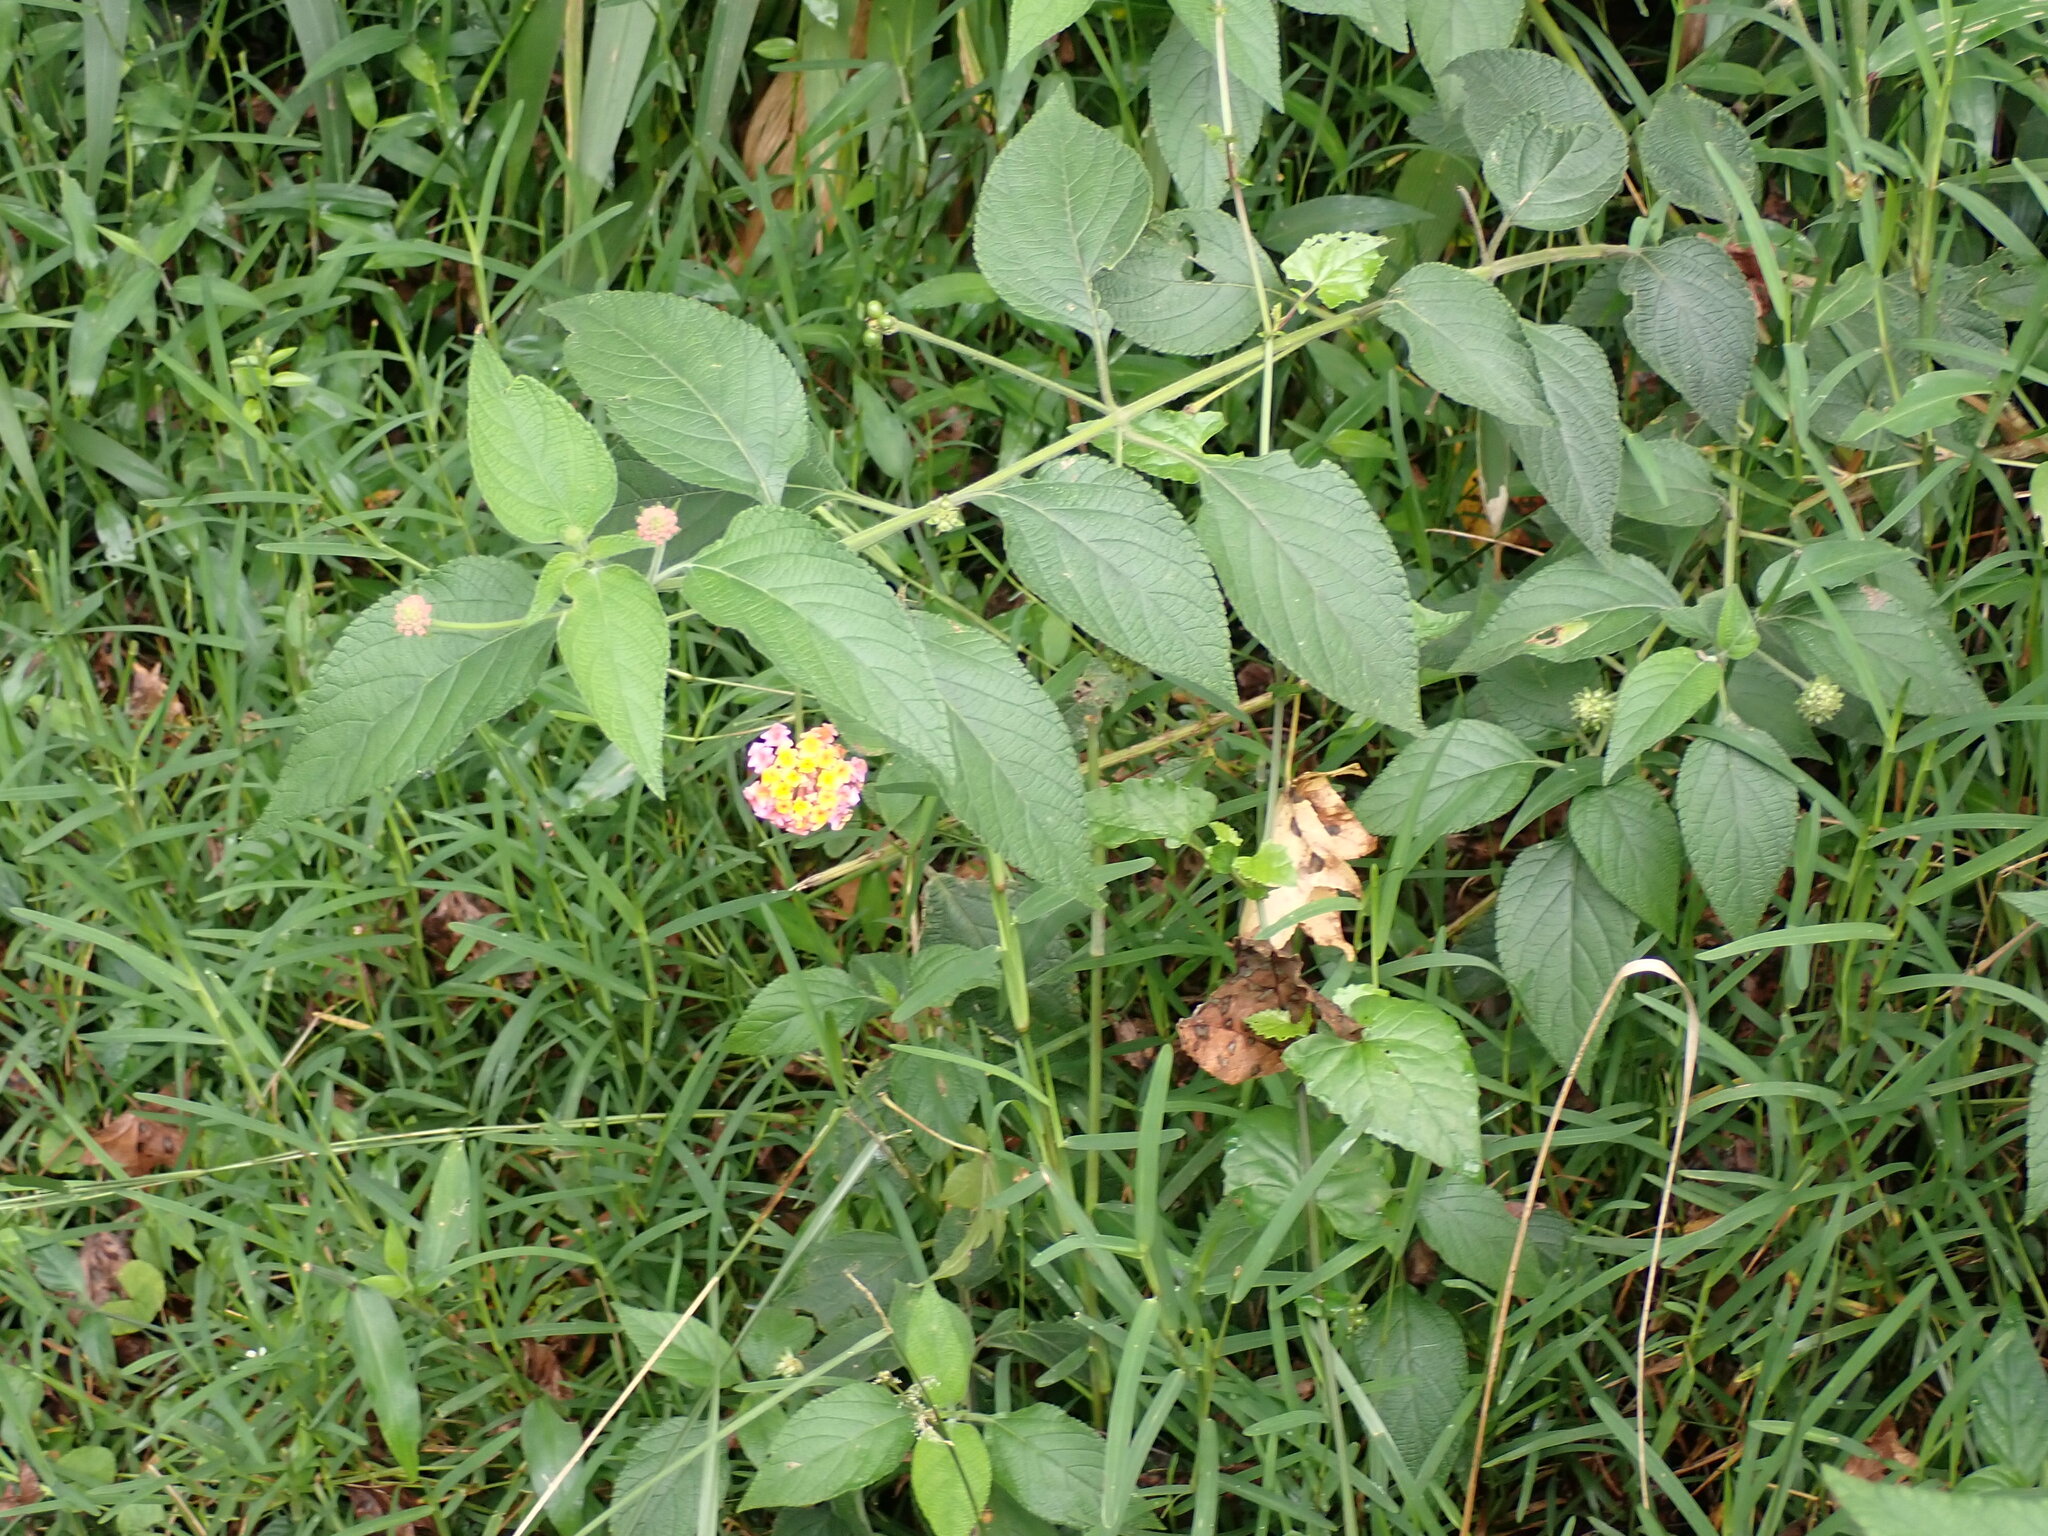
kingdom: Plantae
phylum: Tracheophyta
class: Magnoliopsida
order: Lamiales
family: Verbenaceae
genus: Lantana
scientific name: Lantana camara
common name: Lantana
